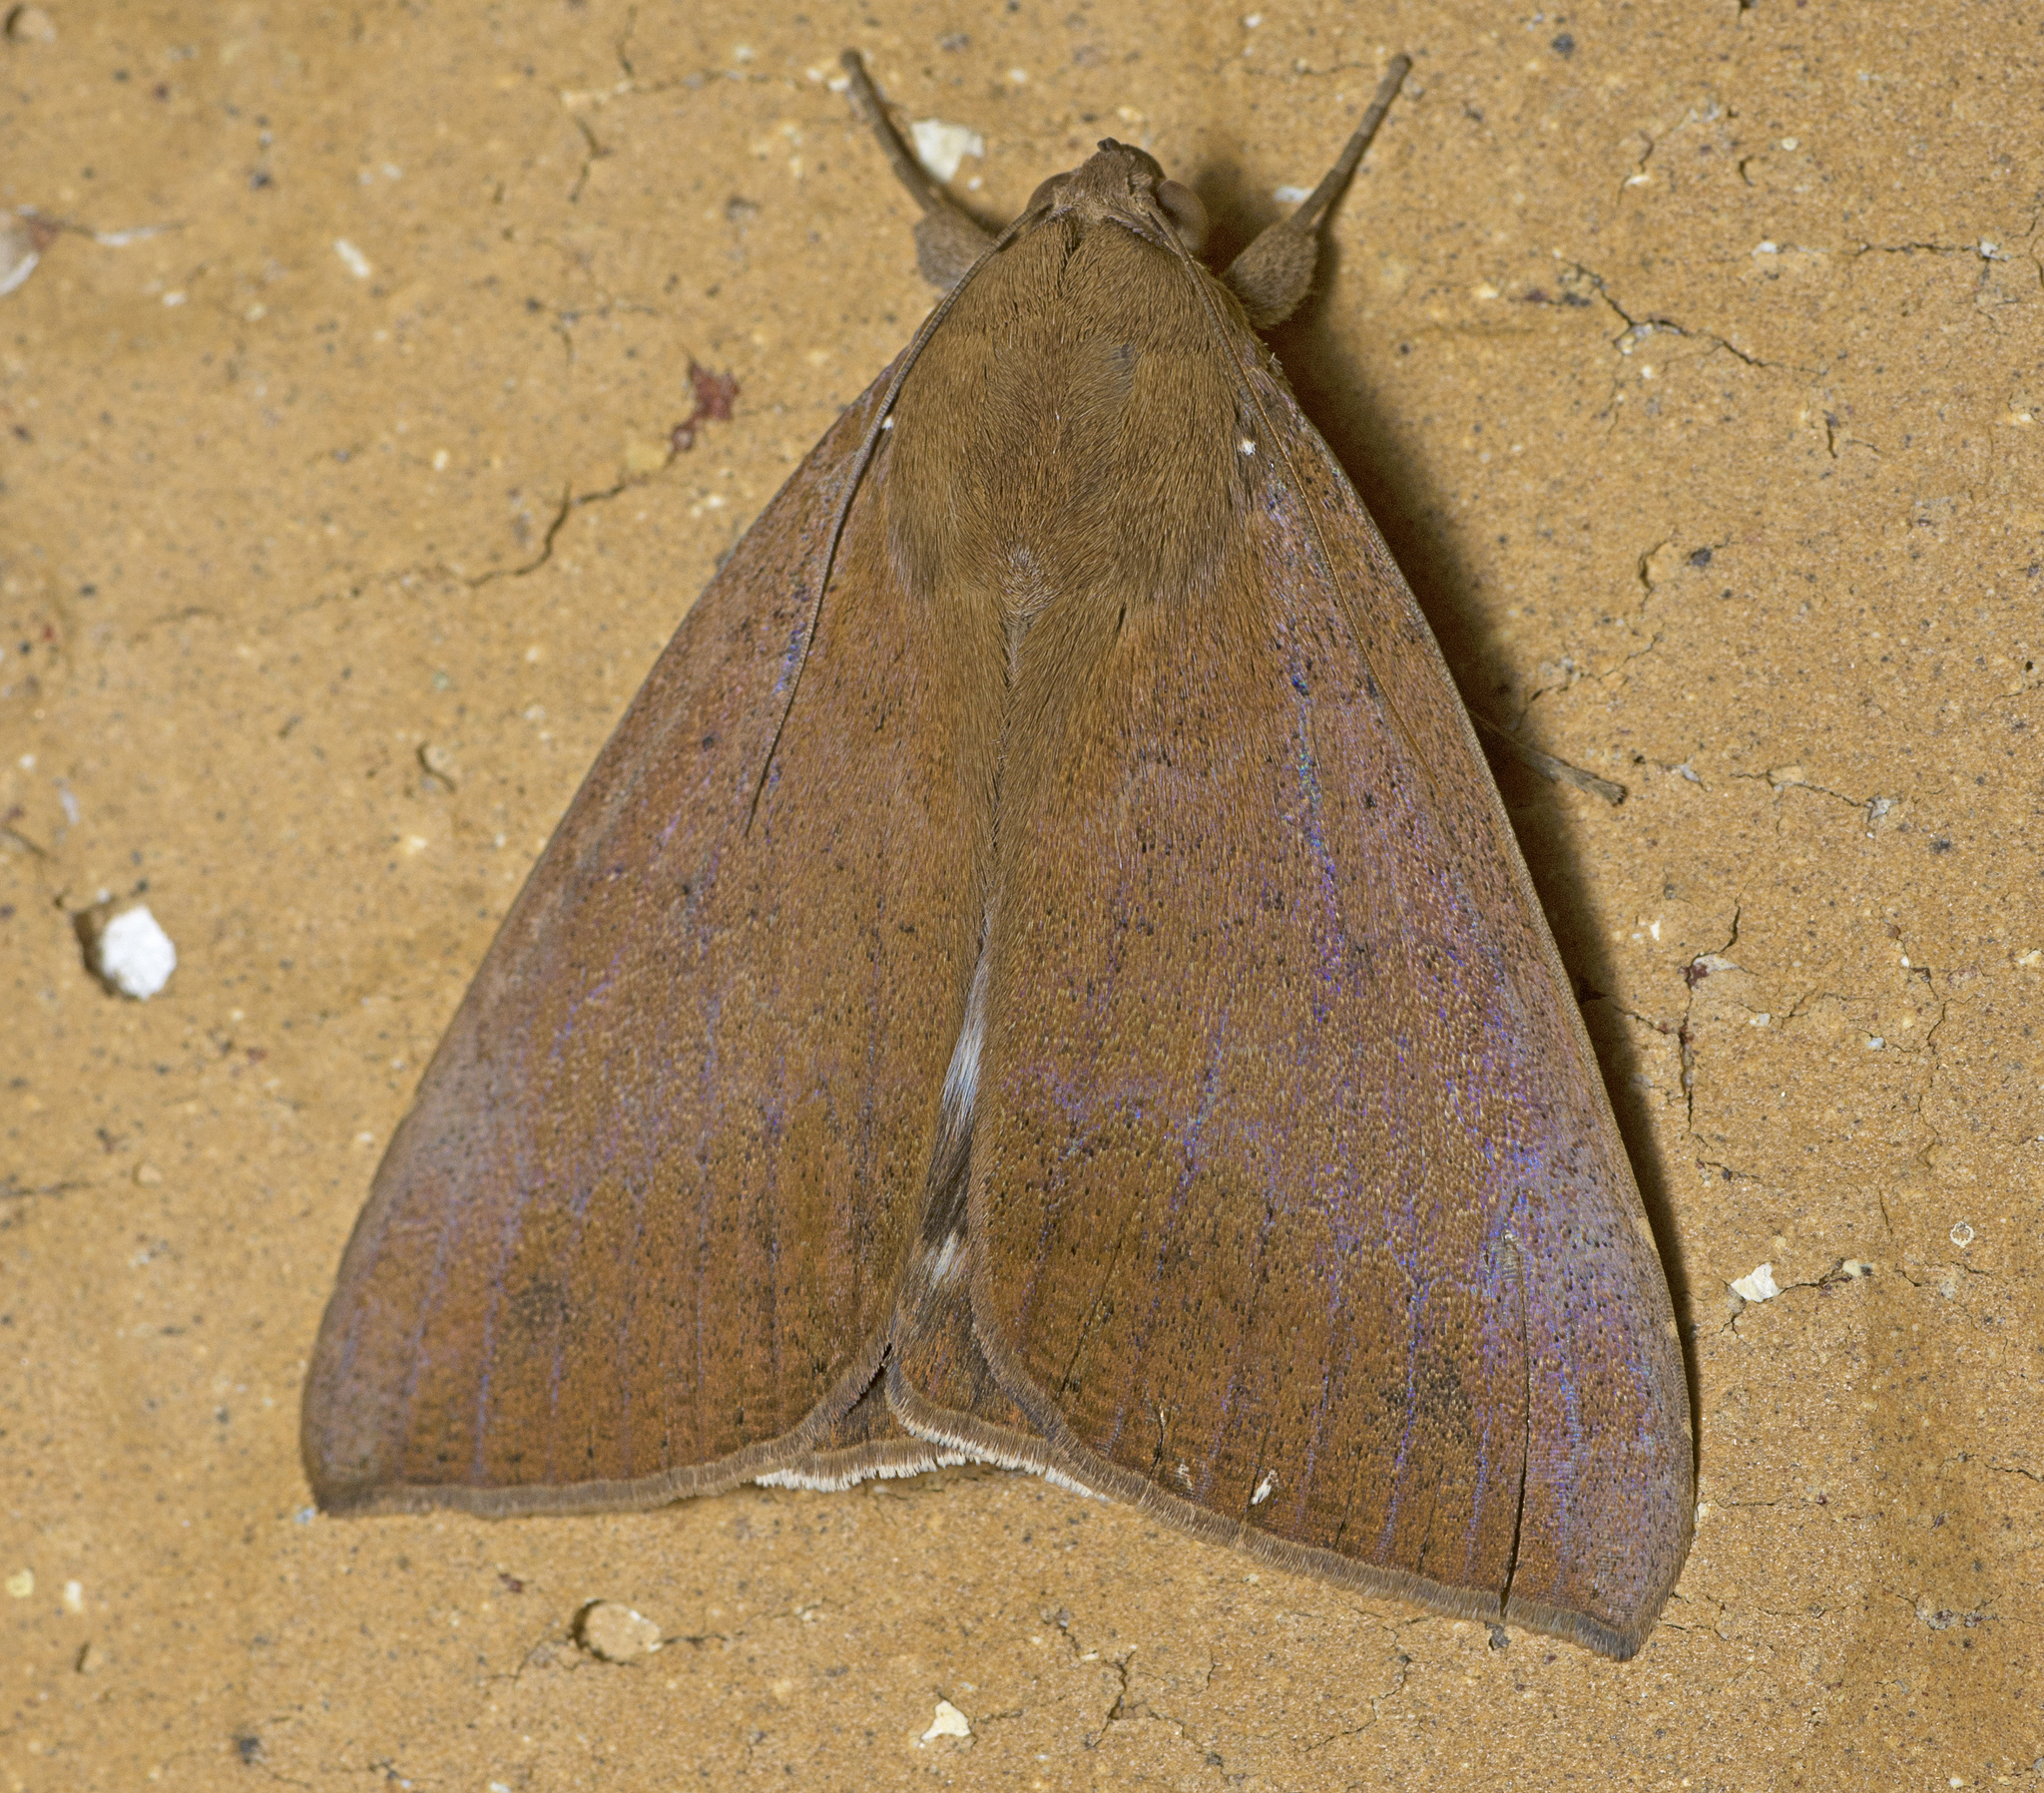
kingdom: Animalia
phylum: Arthropoda
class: Insecta
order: Lepidoptera
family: Erebidae
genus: Achaea
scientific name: Achaea serva
